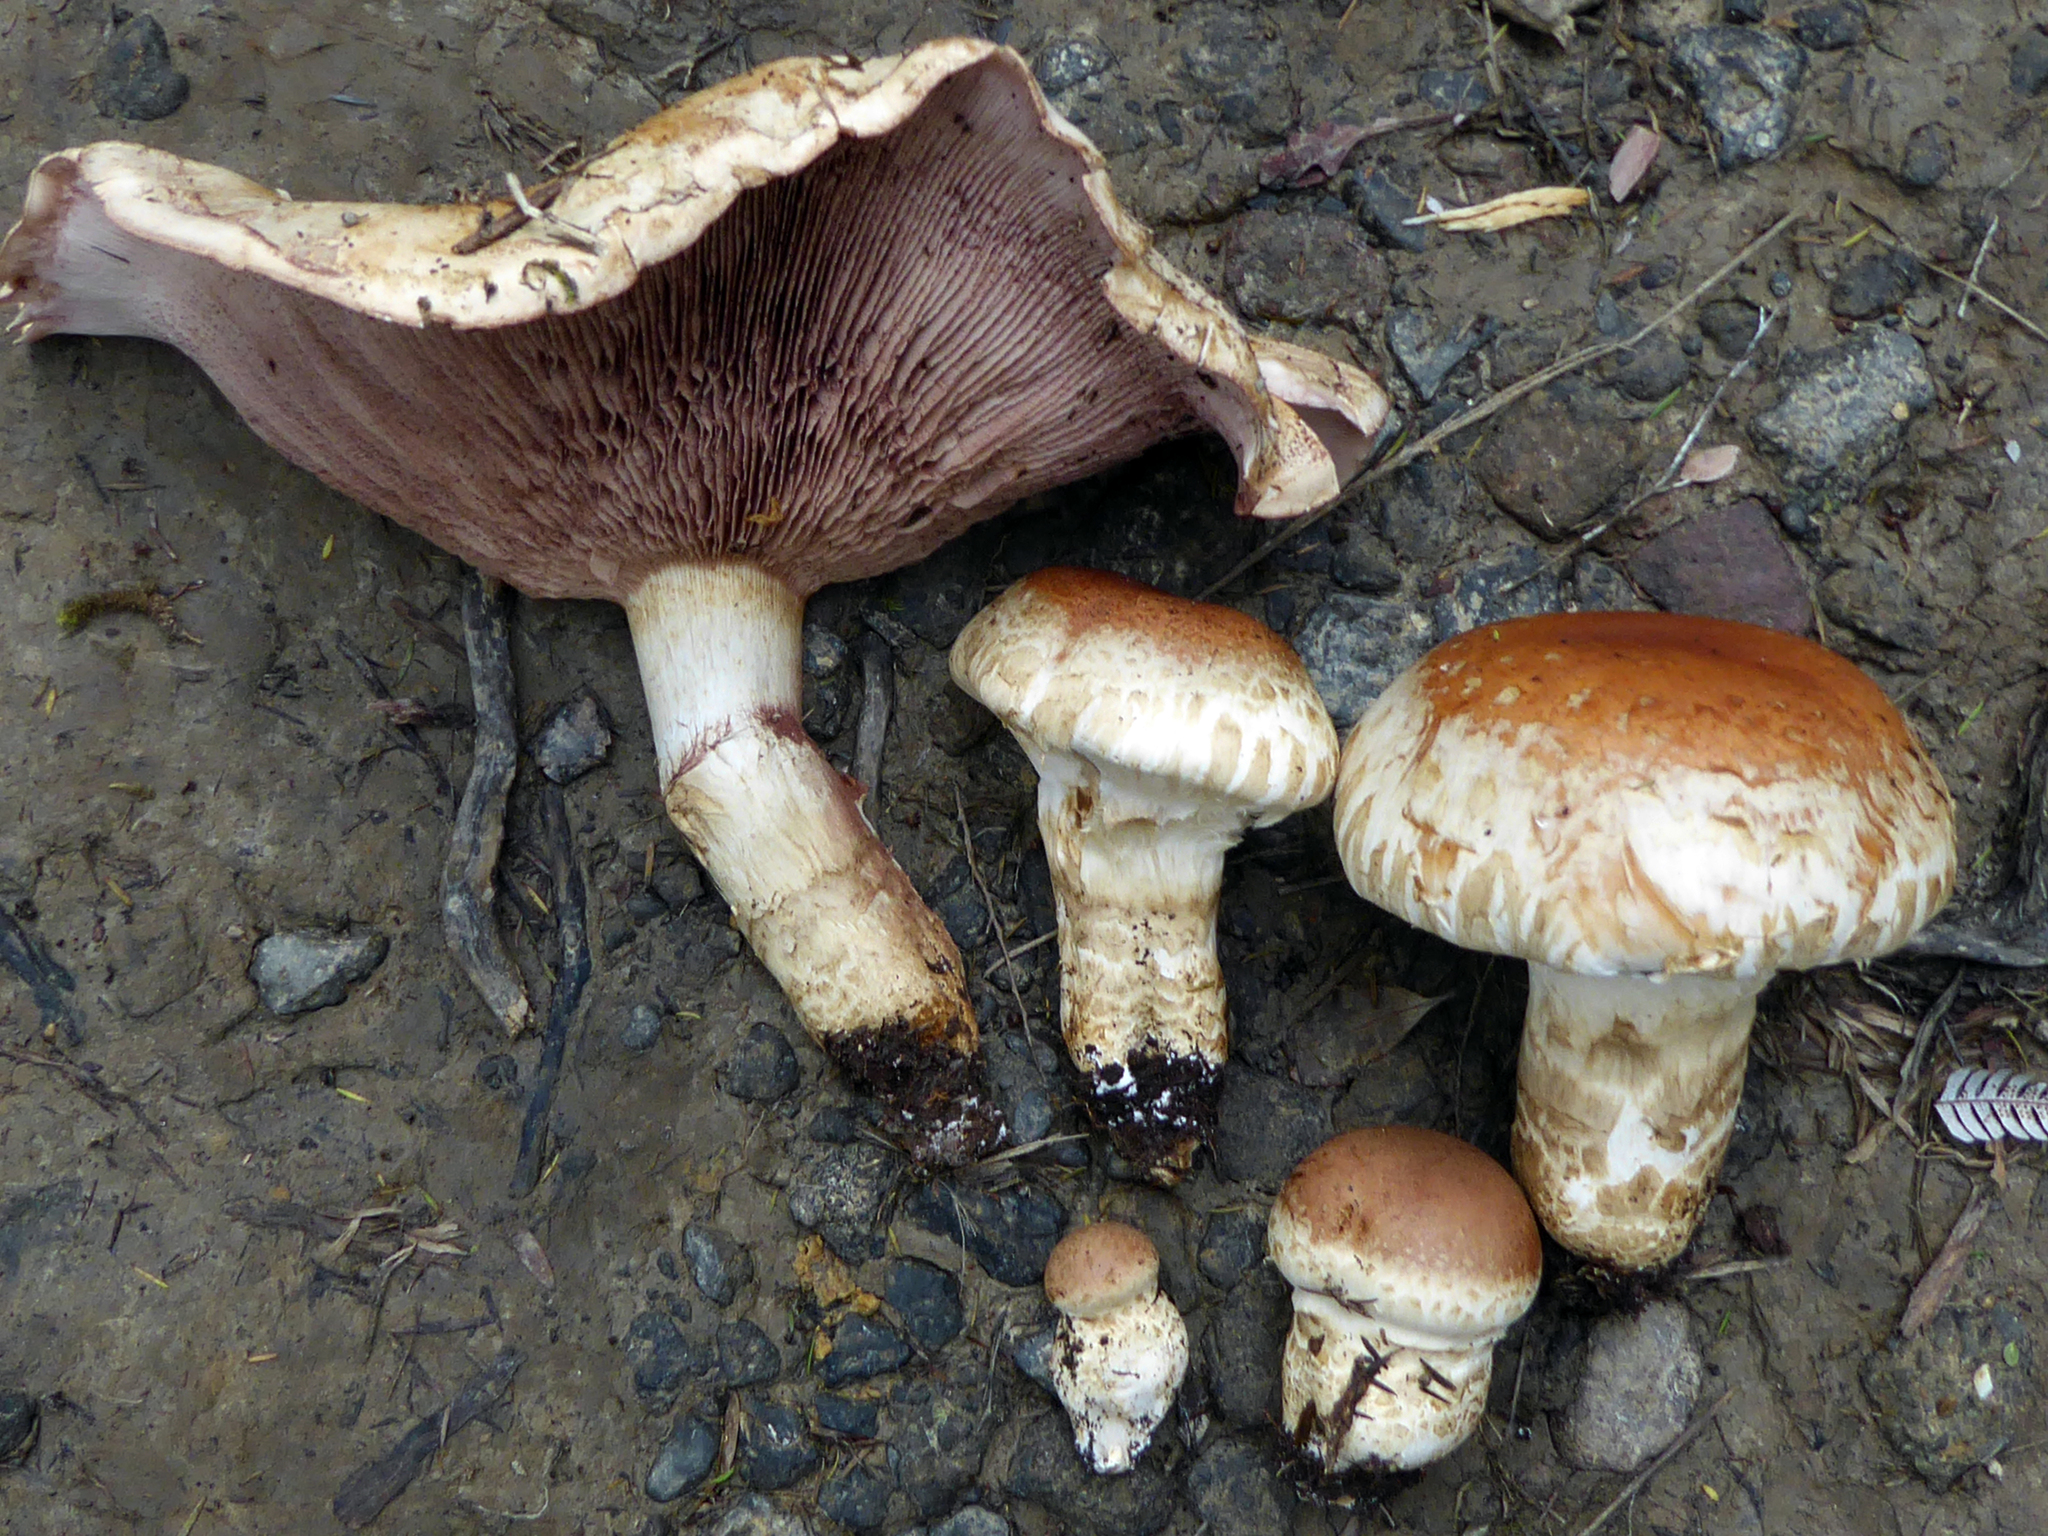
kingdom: Fungi
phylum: Basidiomycota
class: Agaricomycetes
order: Agaricales
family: Hymenogastraceae
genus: Hebeloma
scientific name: Hebeloma victoriense
